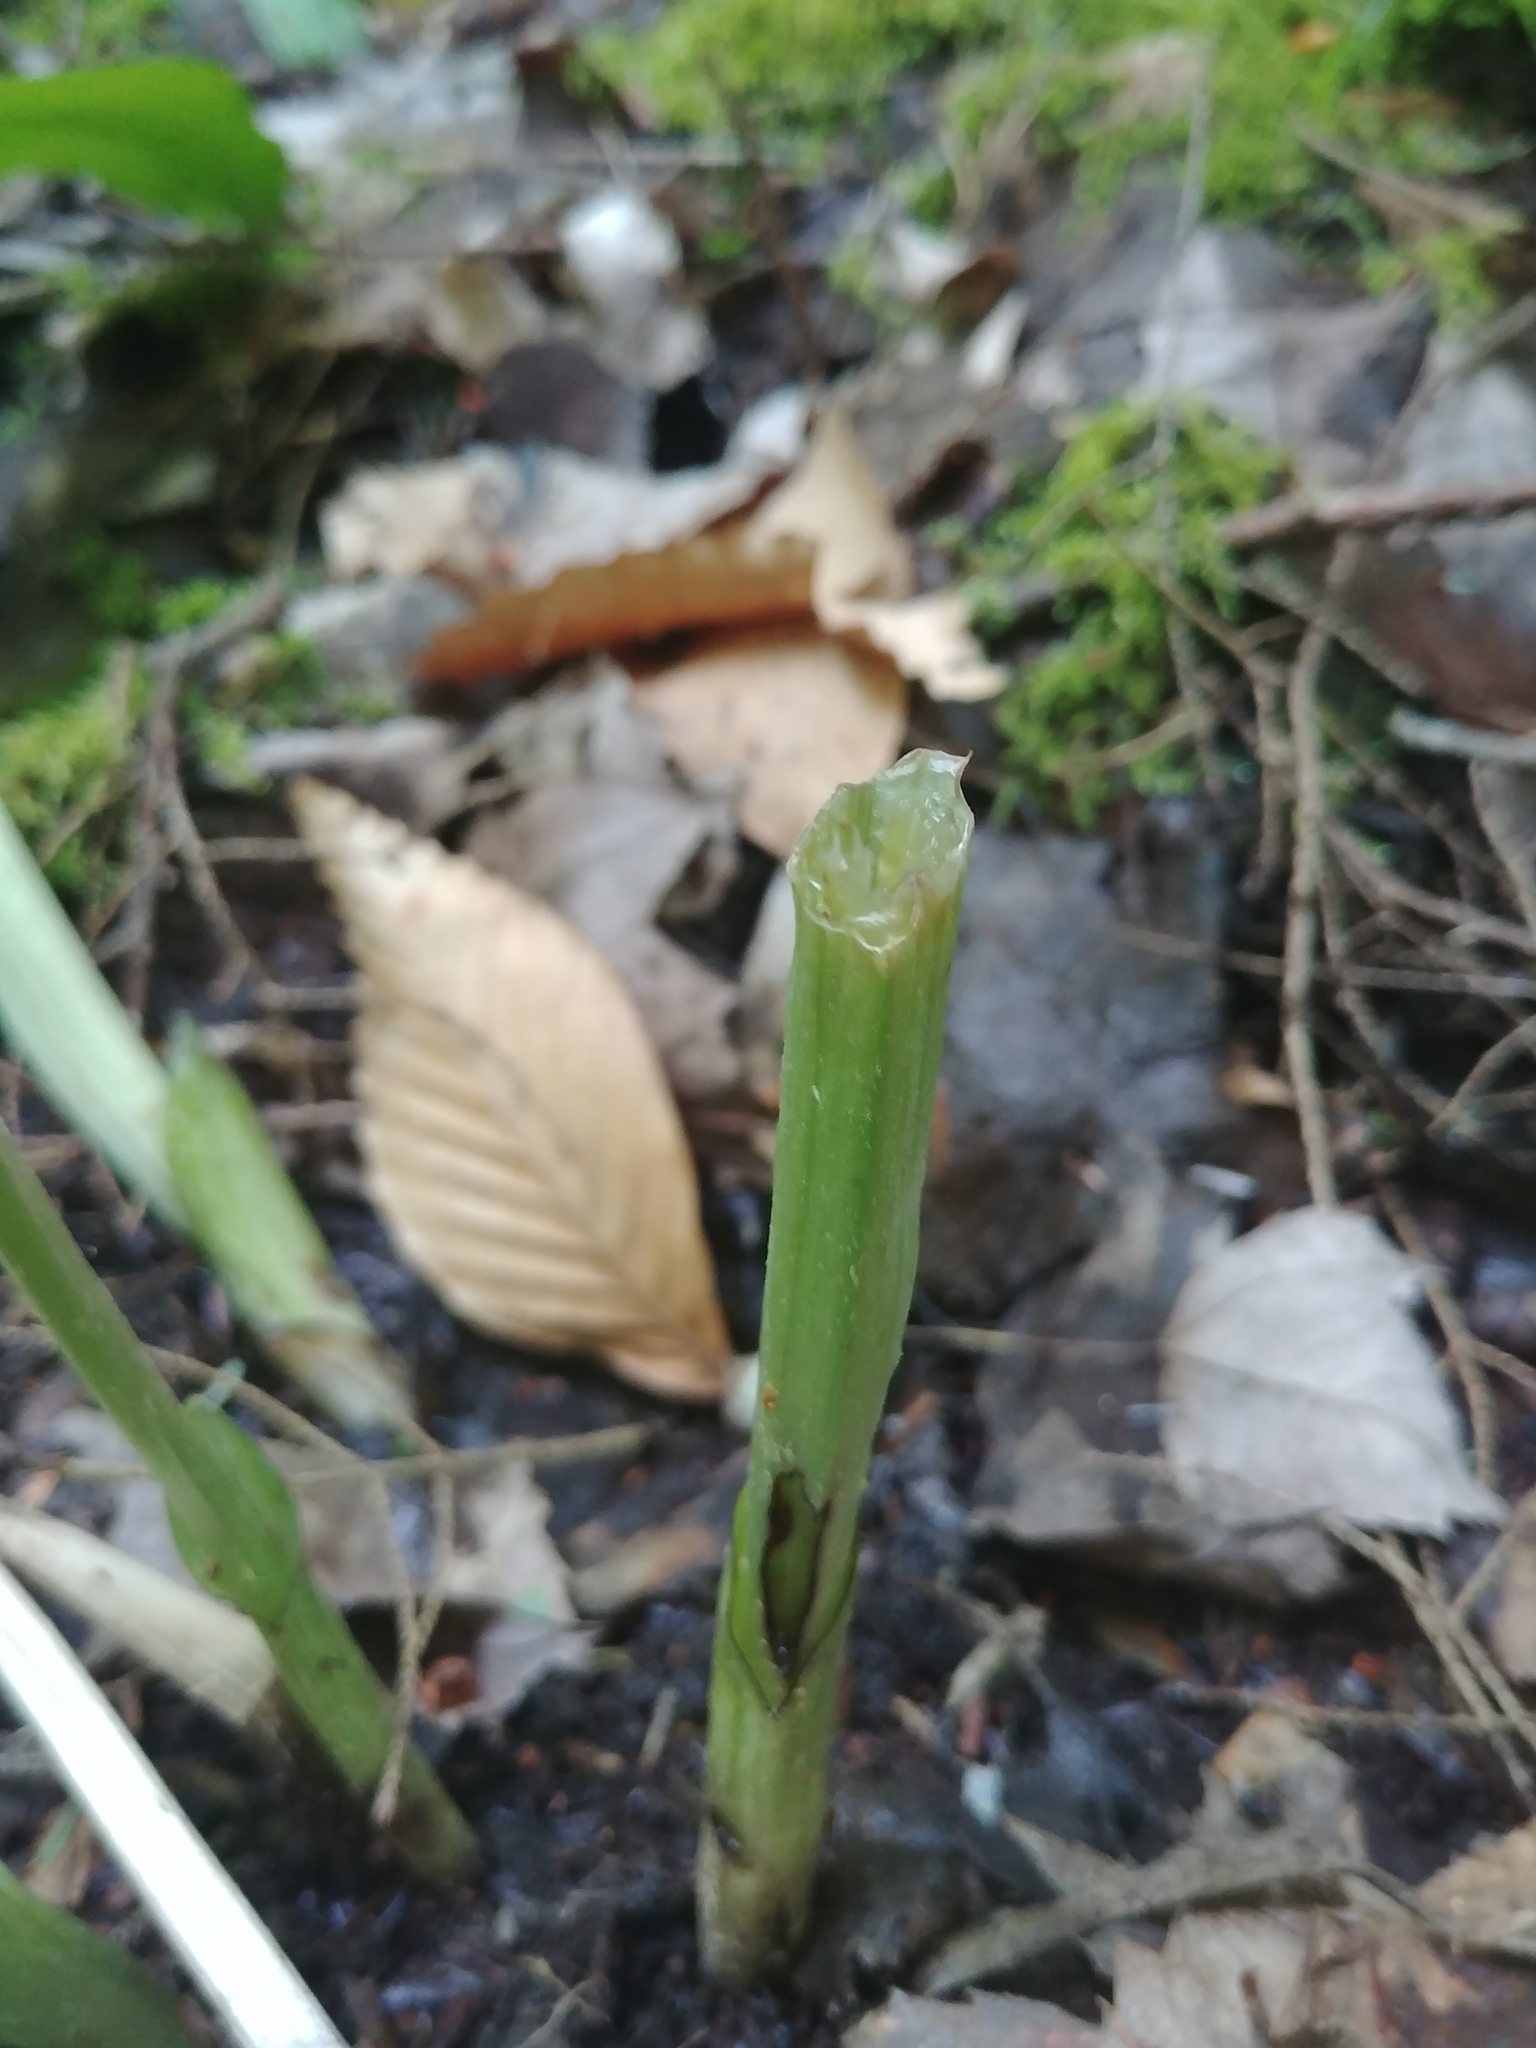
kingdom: Plantae
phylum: Tracheophyta
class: Liliopsida
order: Asparagales
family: Orchidaceae
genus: Platanthera
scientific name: Platanthera grandiflora
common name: Greater purple fringed orchid
